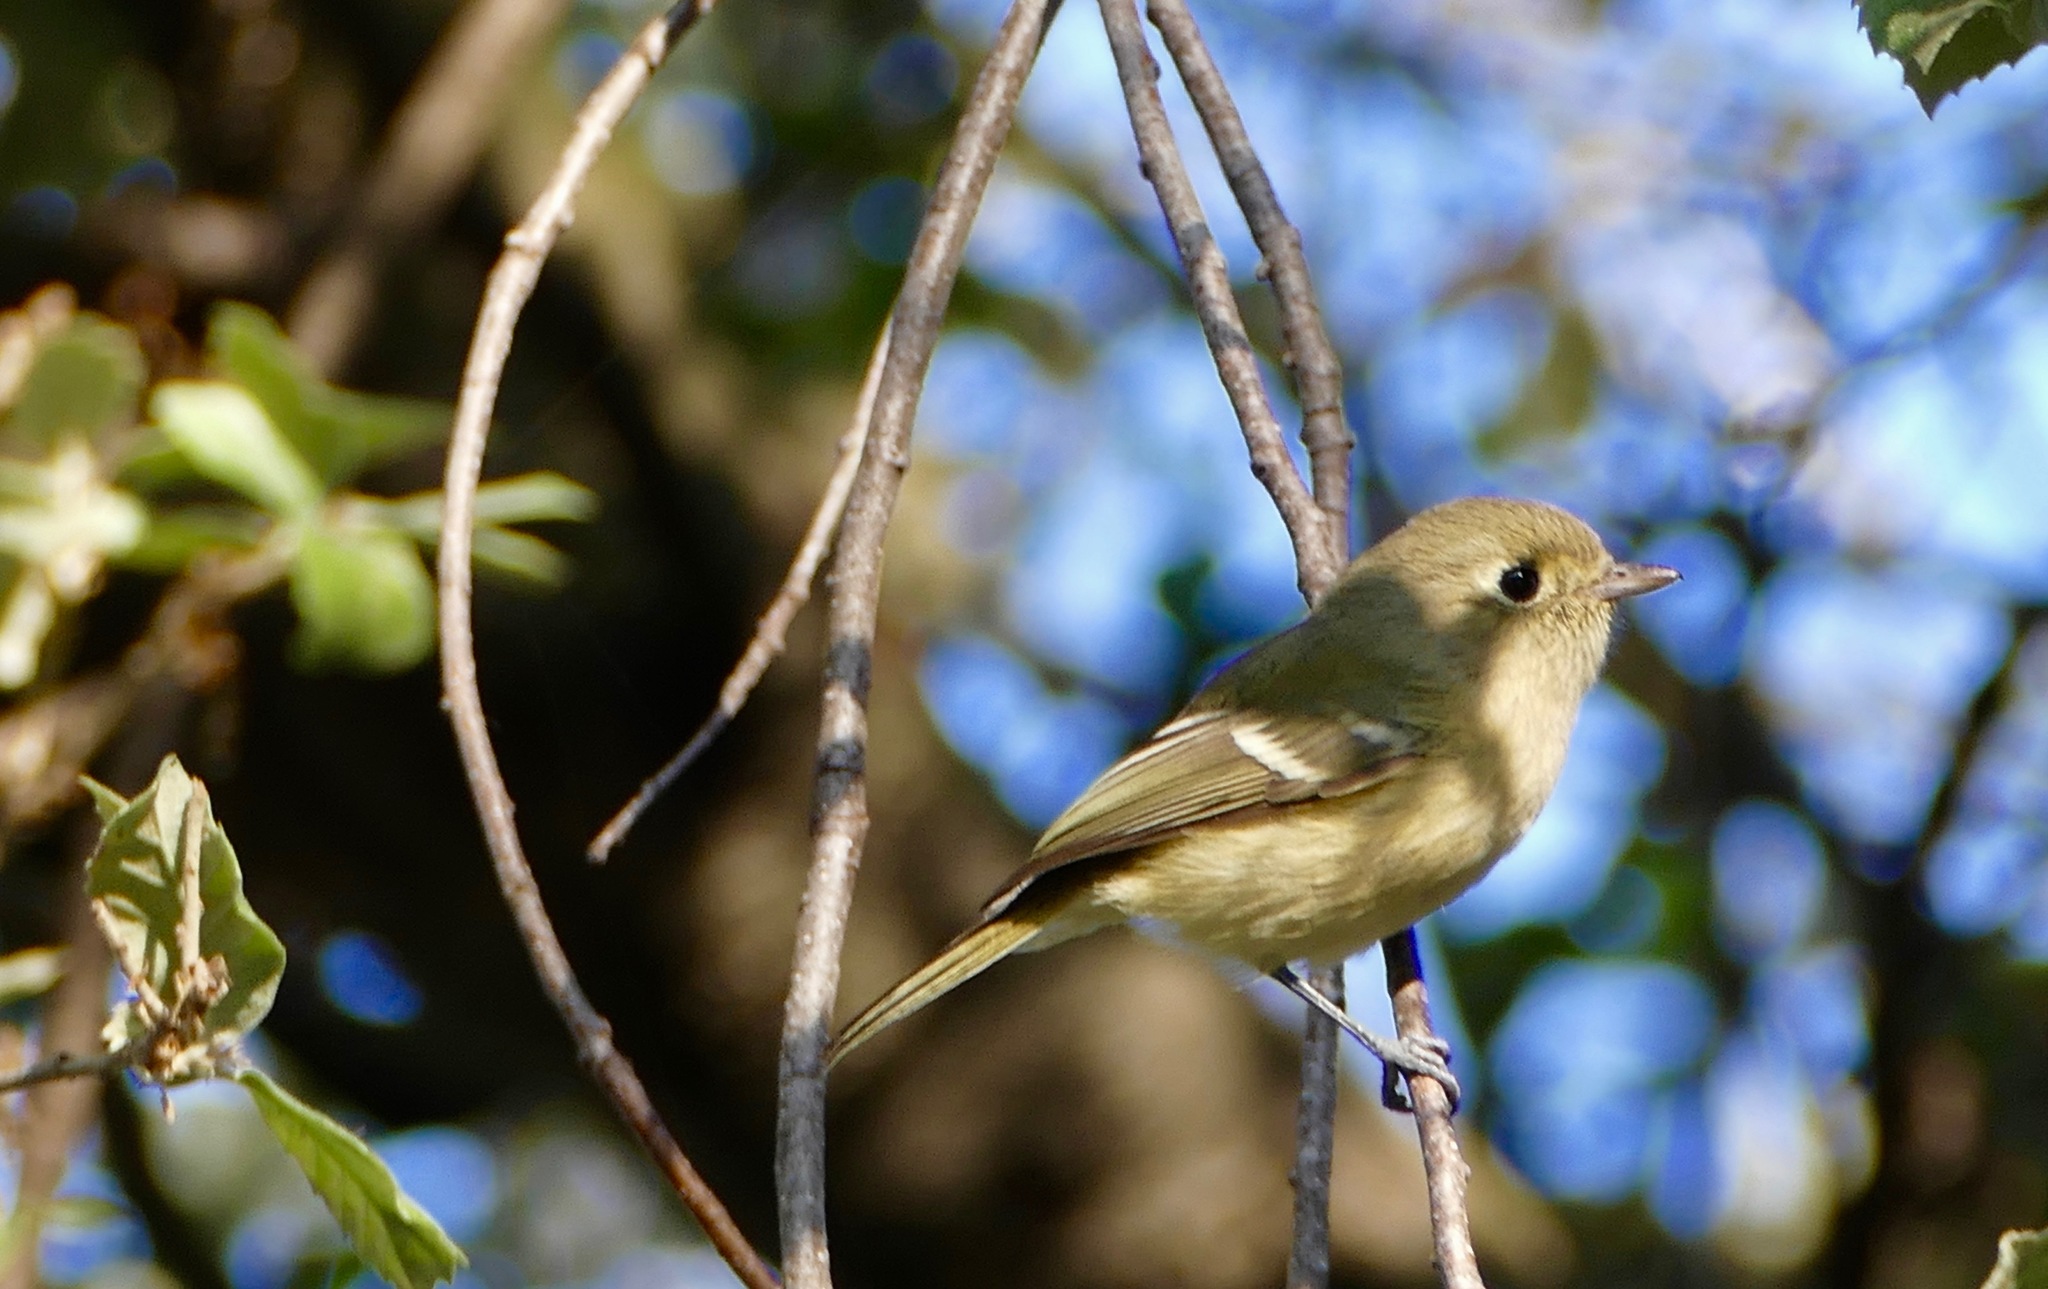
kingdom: Animalia
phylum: Chordata
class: Aves
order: Passeriformes
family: Vireonidae
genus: Vireo
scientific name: Vireo huttoni
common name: Hutton's vireo
